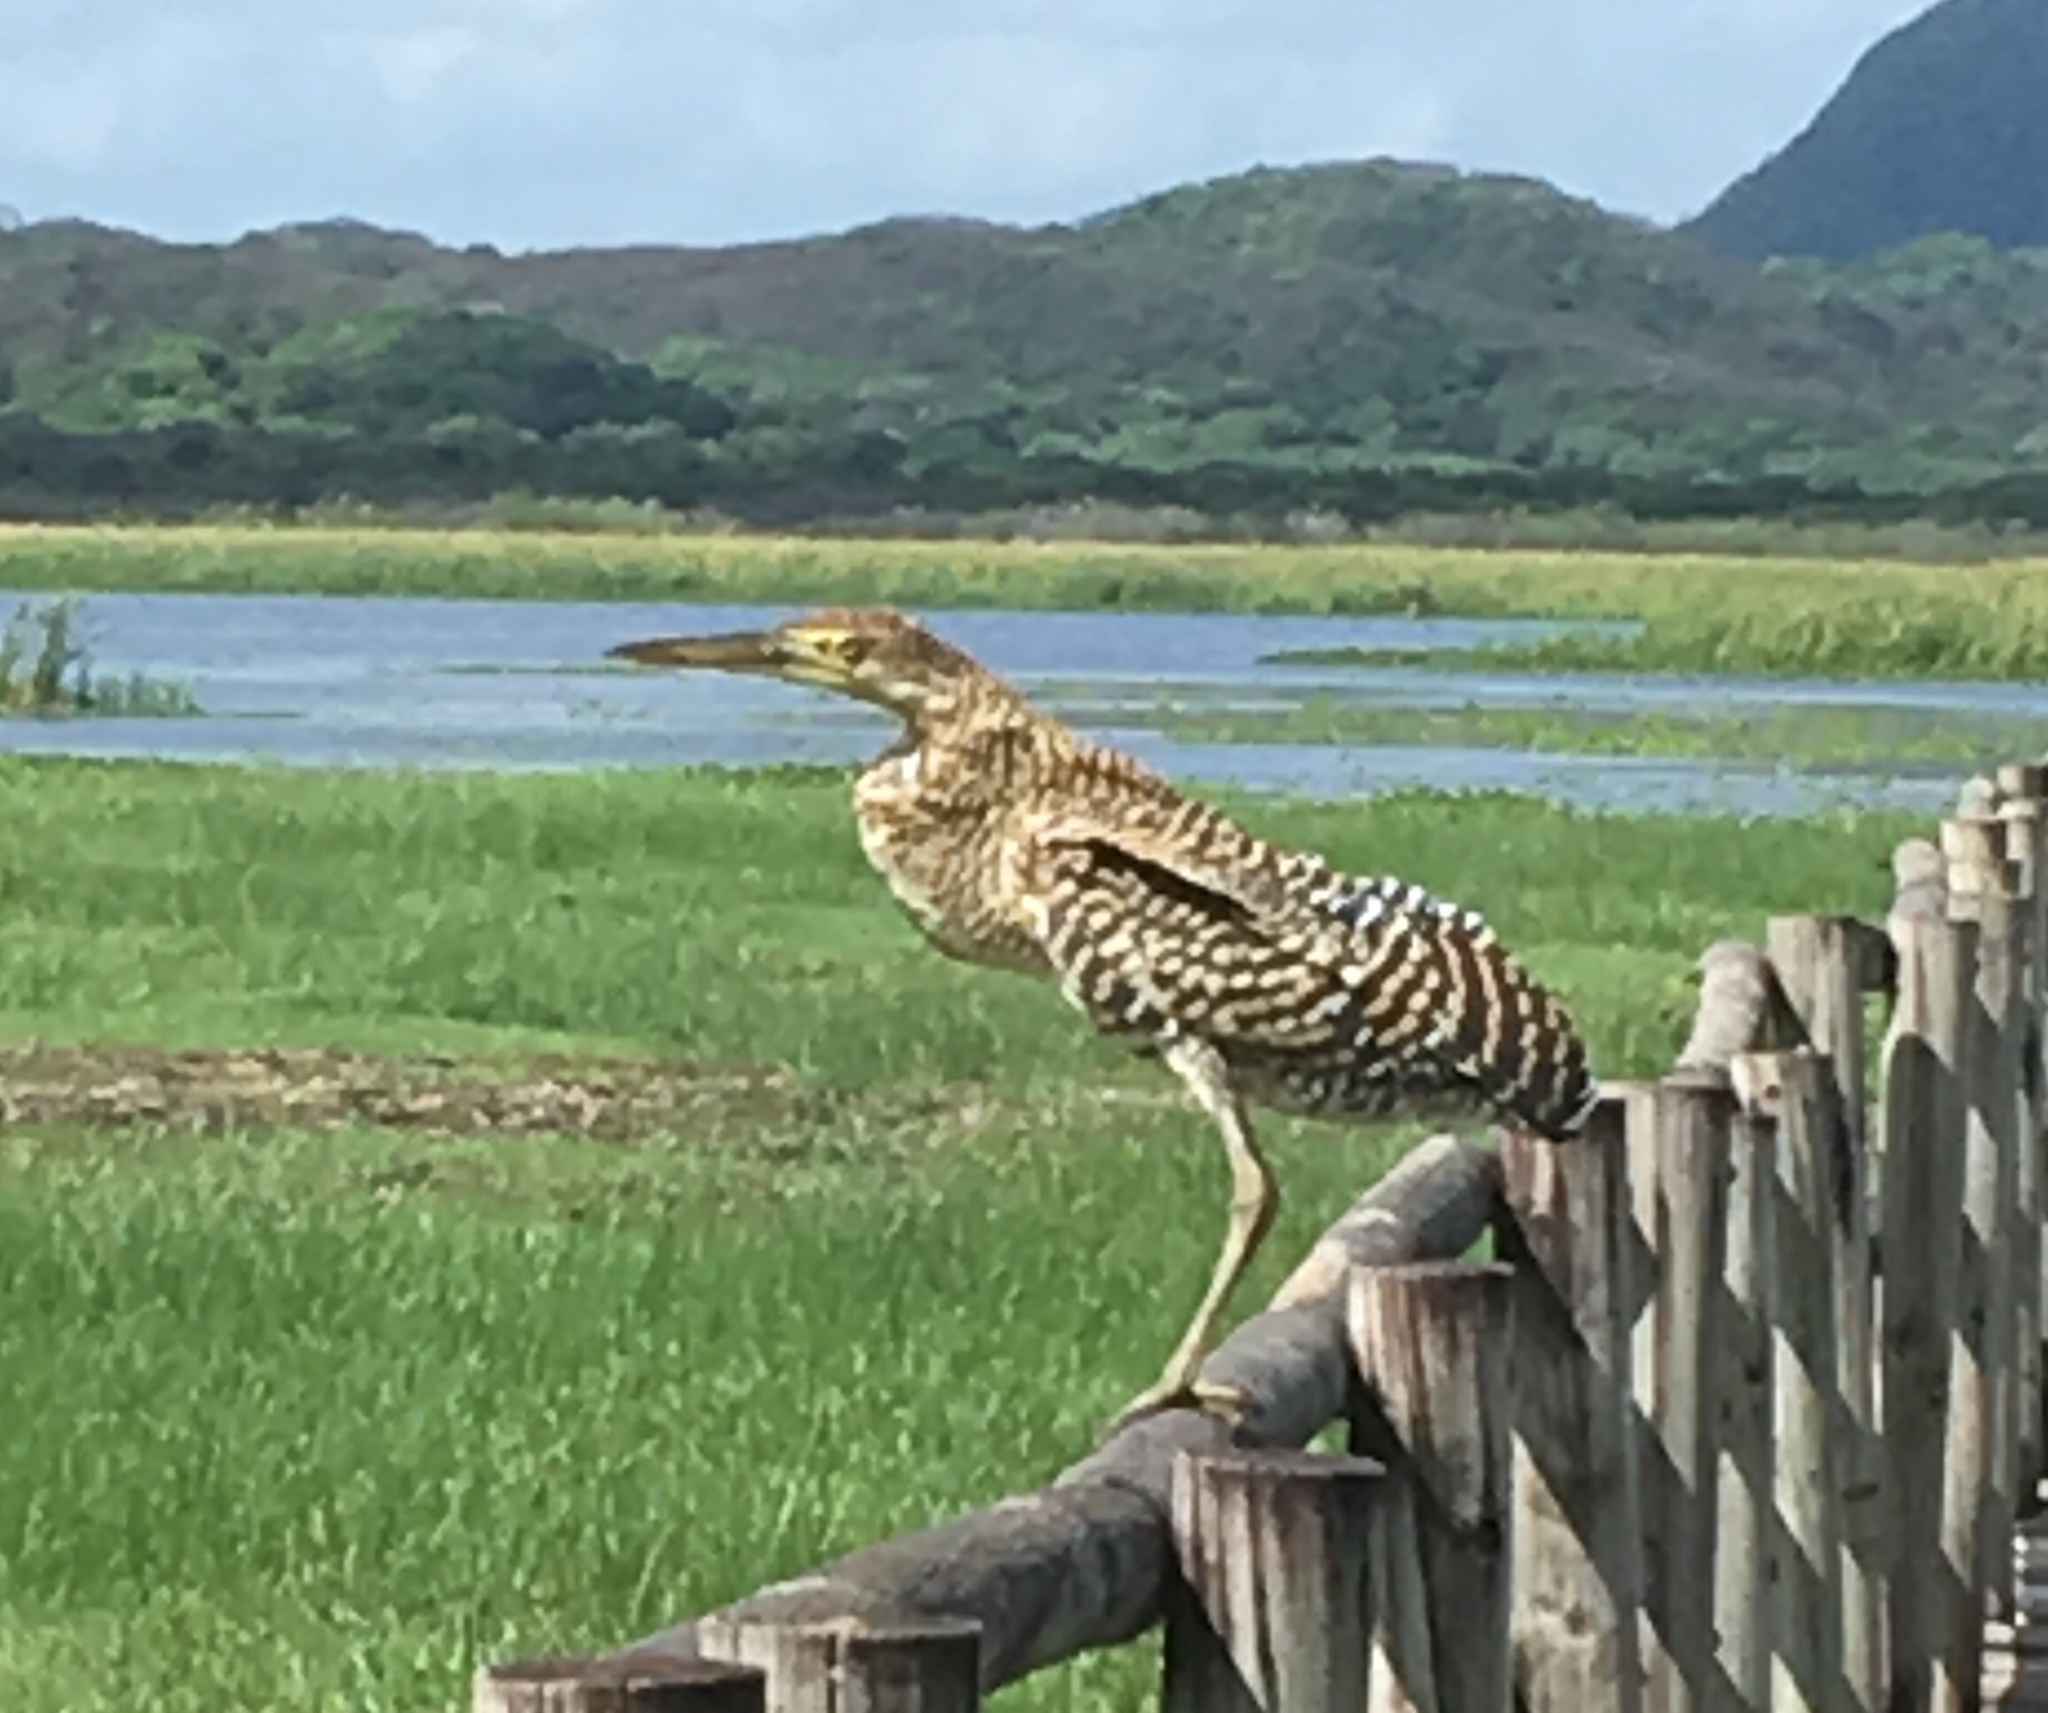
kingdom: Animalia
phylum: Chordata
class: Aves
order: Pelecaniformes
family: Ardeidae
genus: Tigrisoma
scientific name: Tigrisoma mexicanum
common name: Bare-throated tiger-heron
